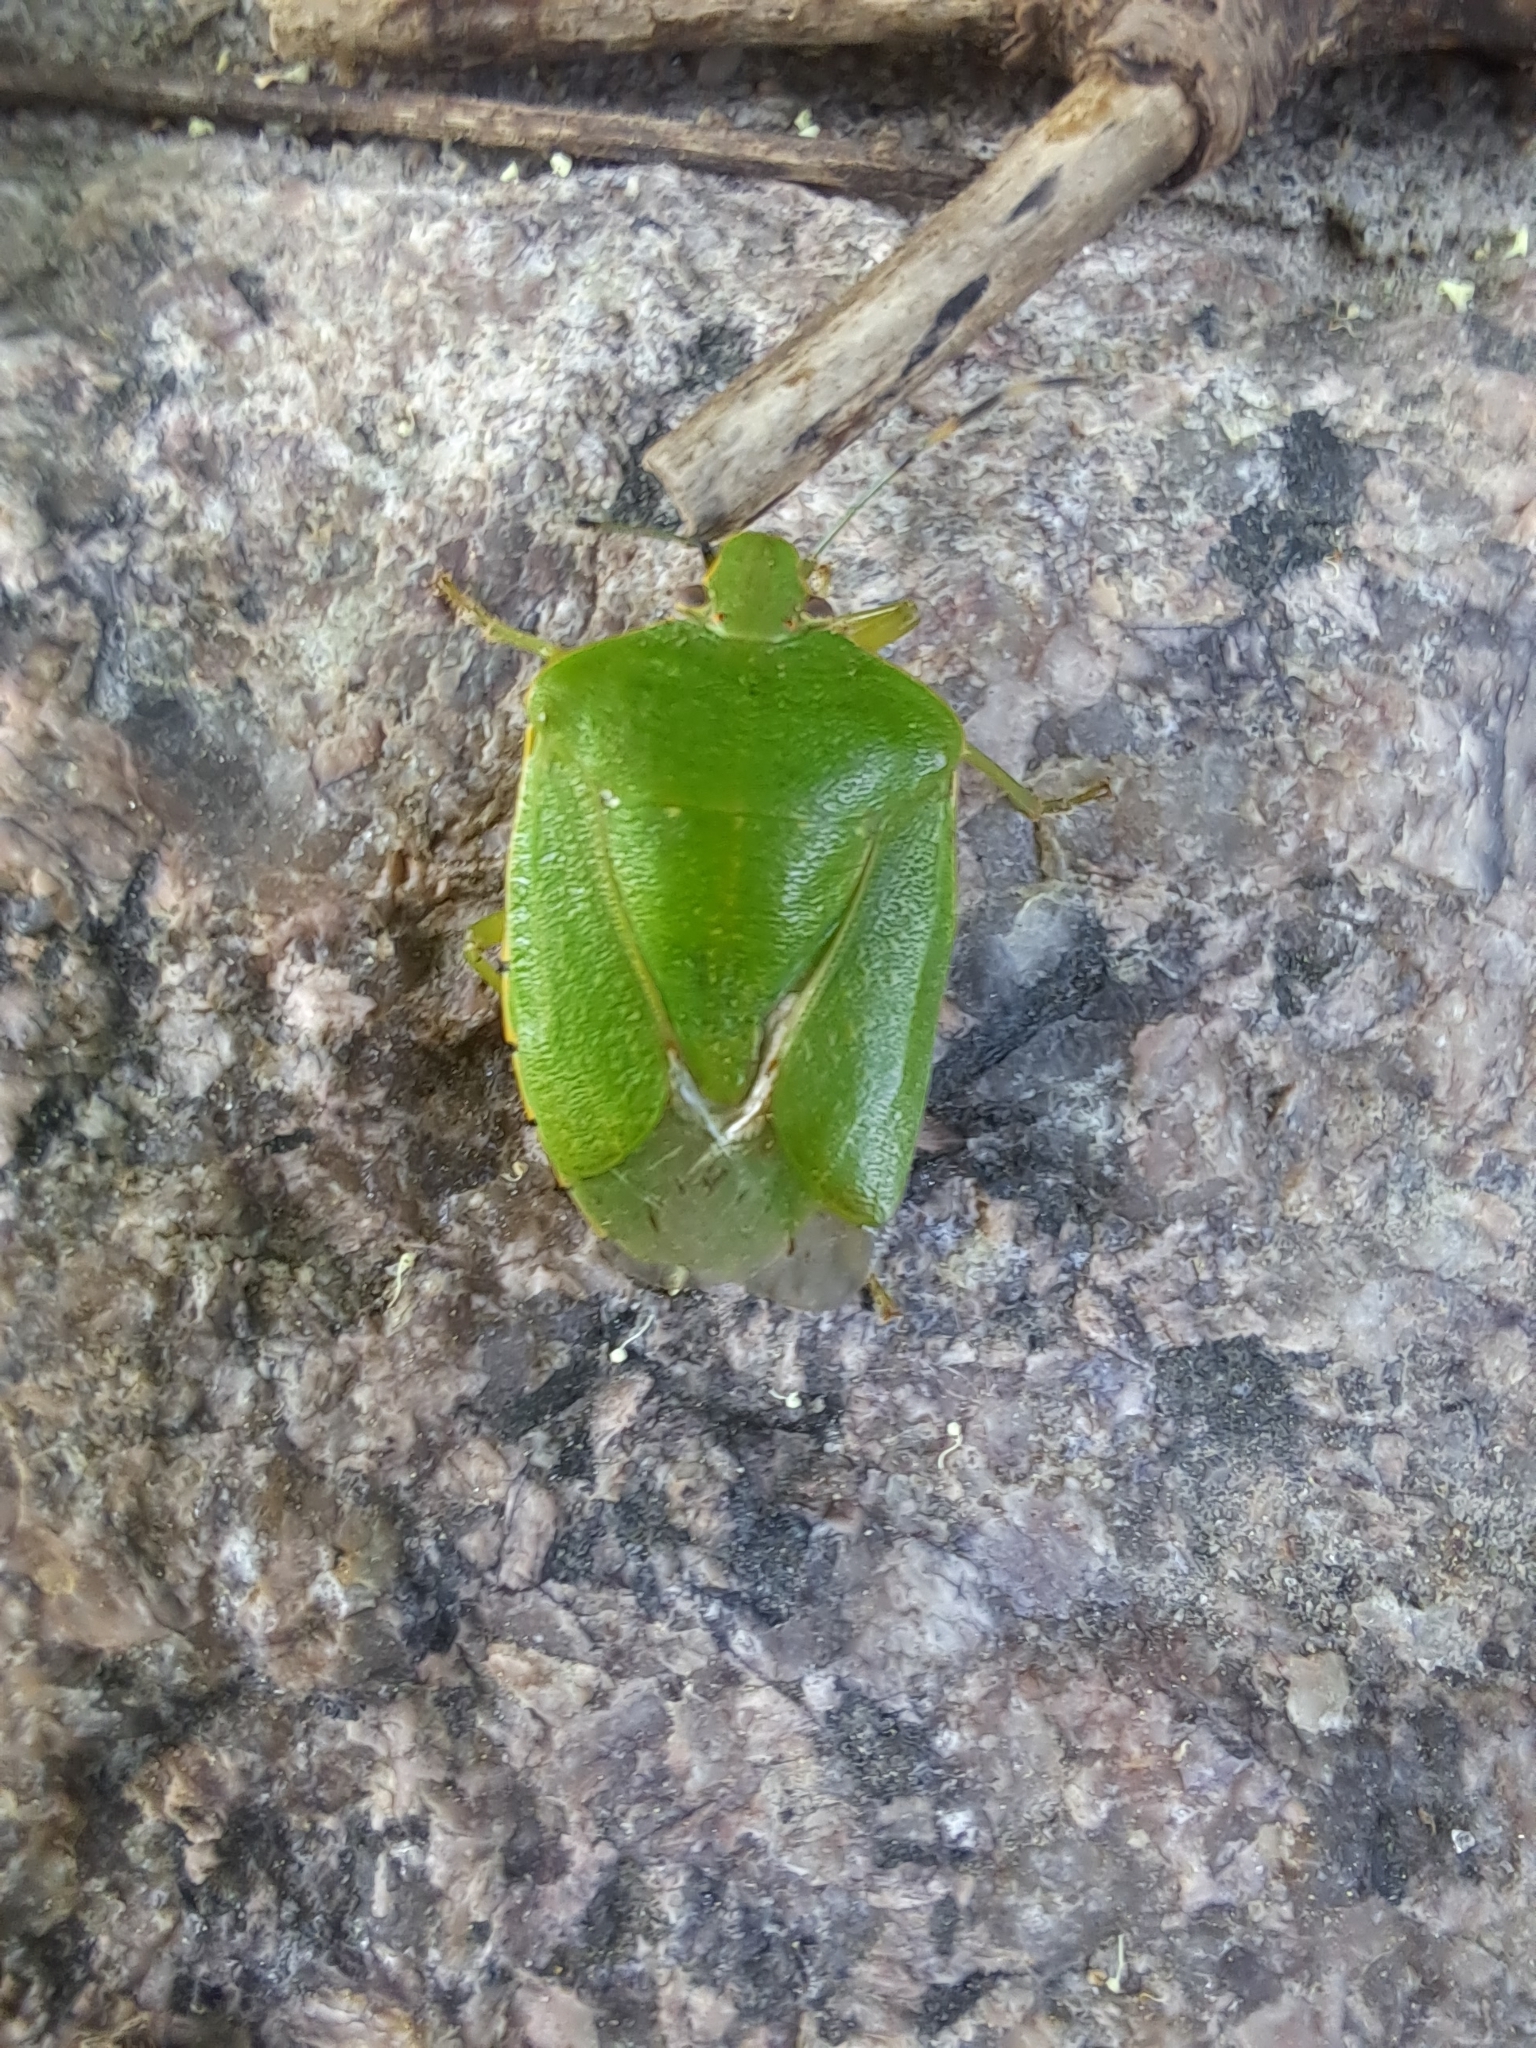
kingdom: Animalia
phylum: Arthropoda
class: Insecta
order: Hemiptera
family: Pentatomidae
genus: Chinavia
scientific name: Chinavia hilaris
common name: Green stink bug
